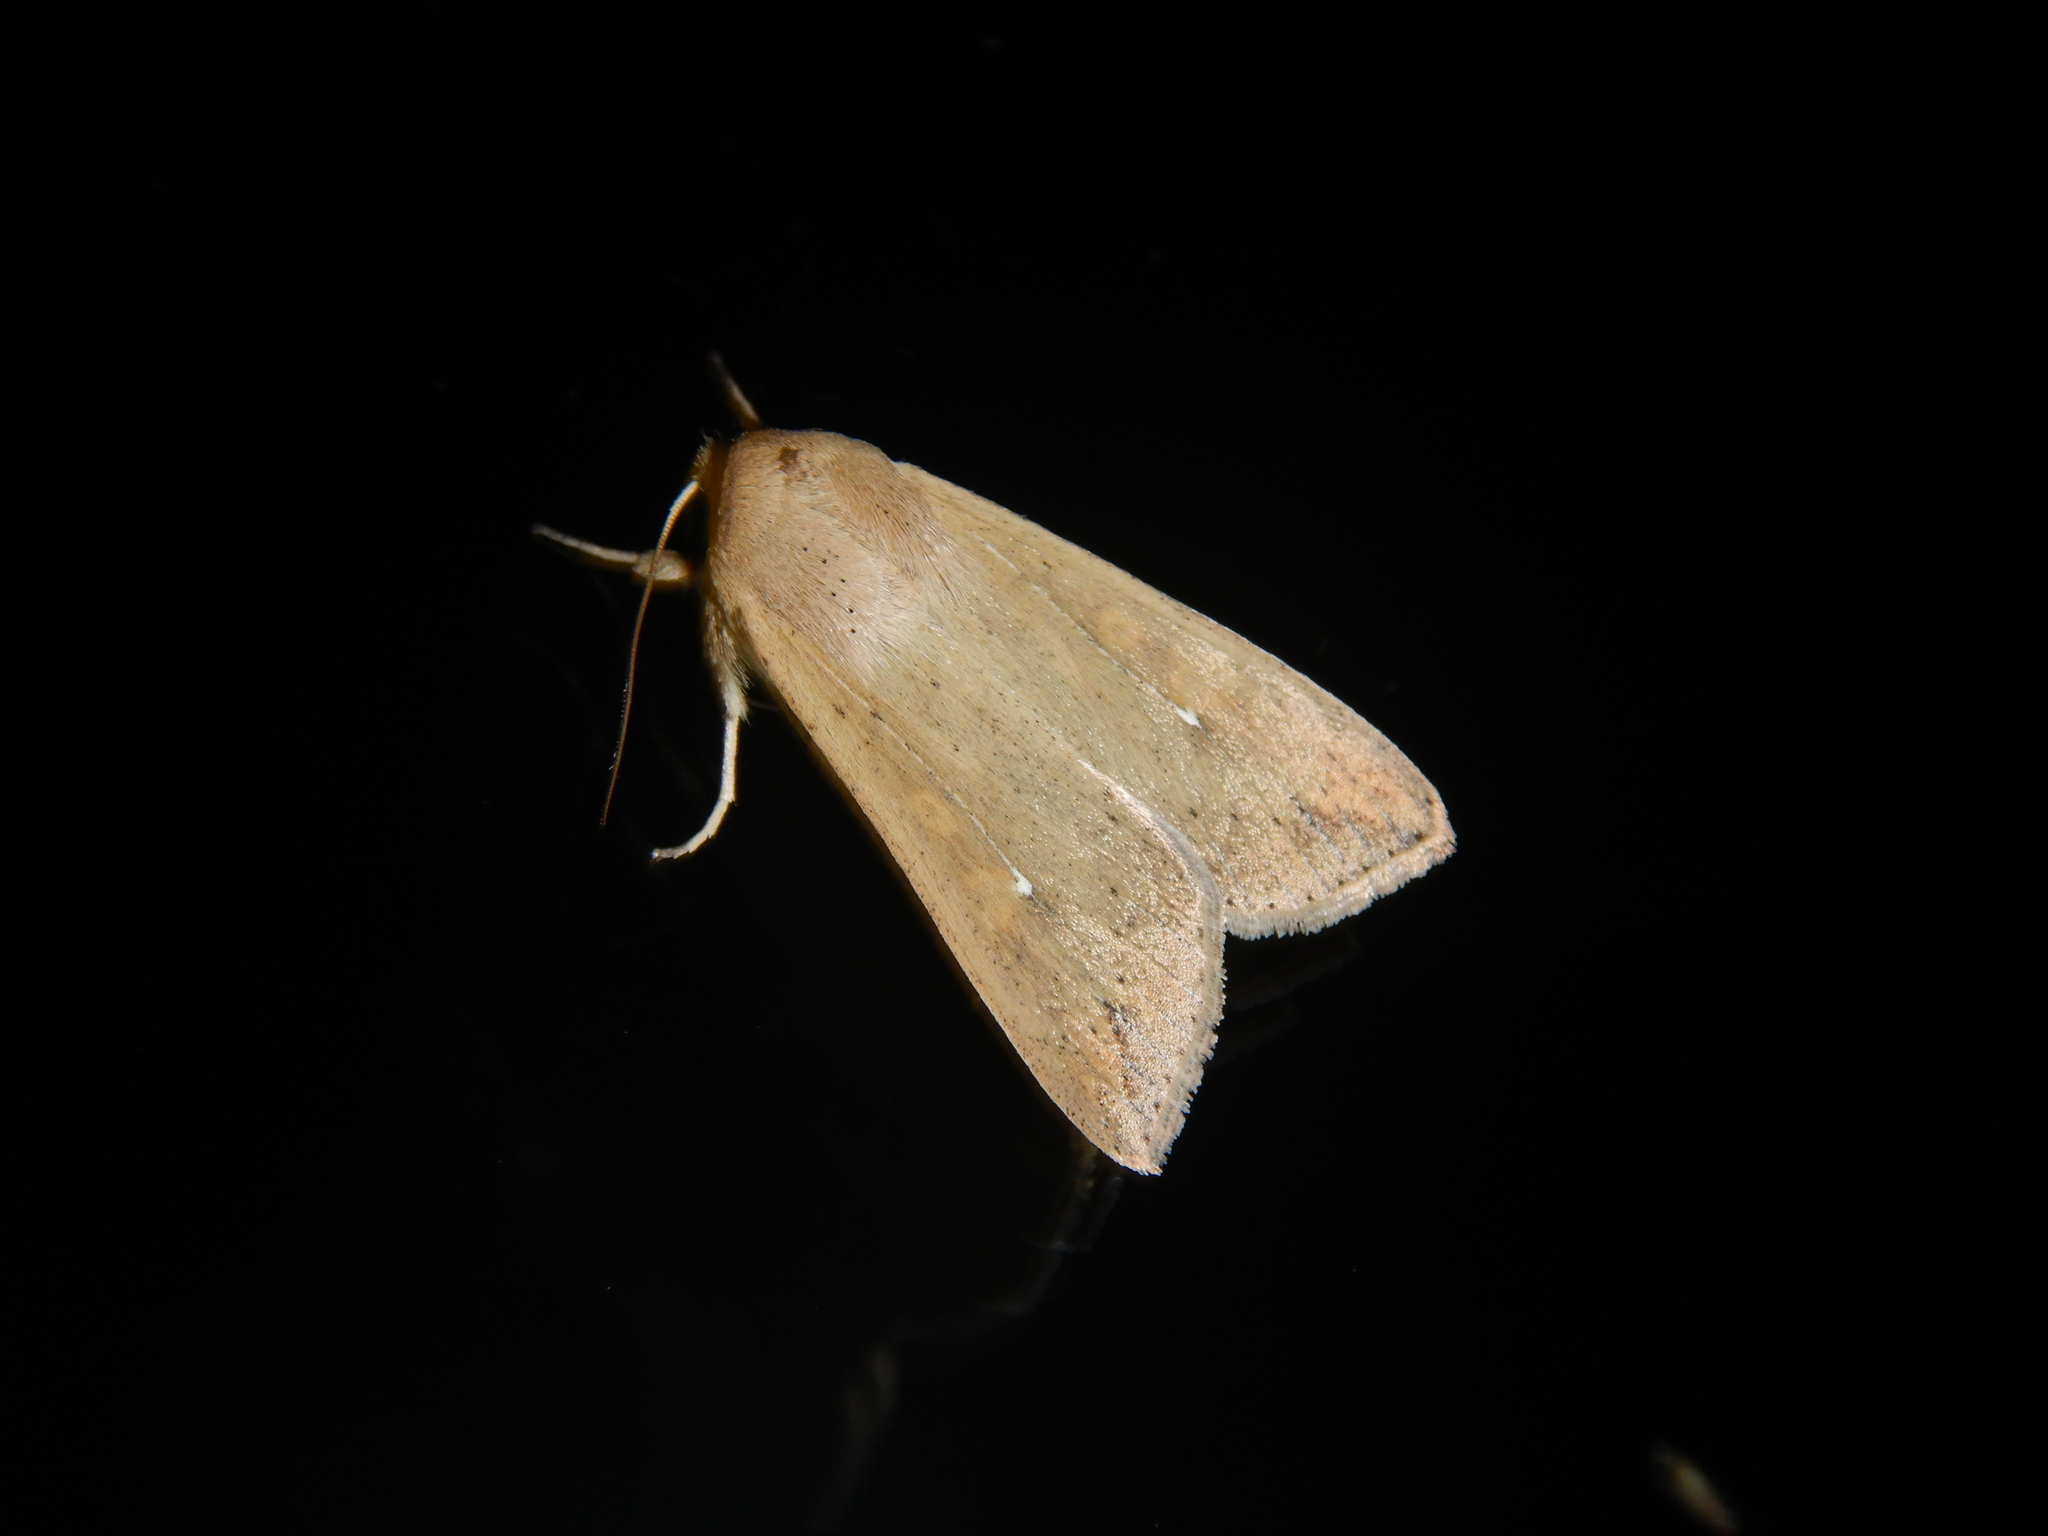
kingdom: Animalia
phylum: Arthropoda
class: Insecta
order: Lepidoptera
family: Noctuidae
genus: Mythimna
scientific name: Mythimna unipuncta
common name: White-speck
